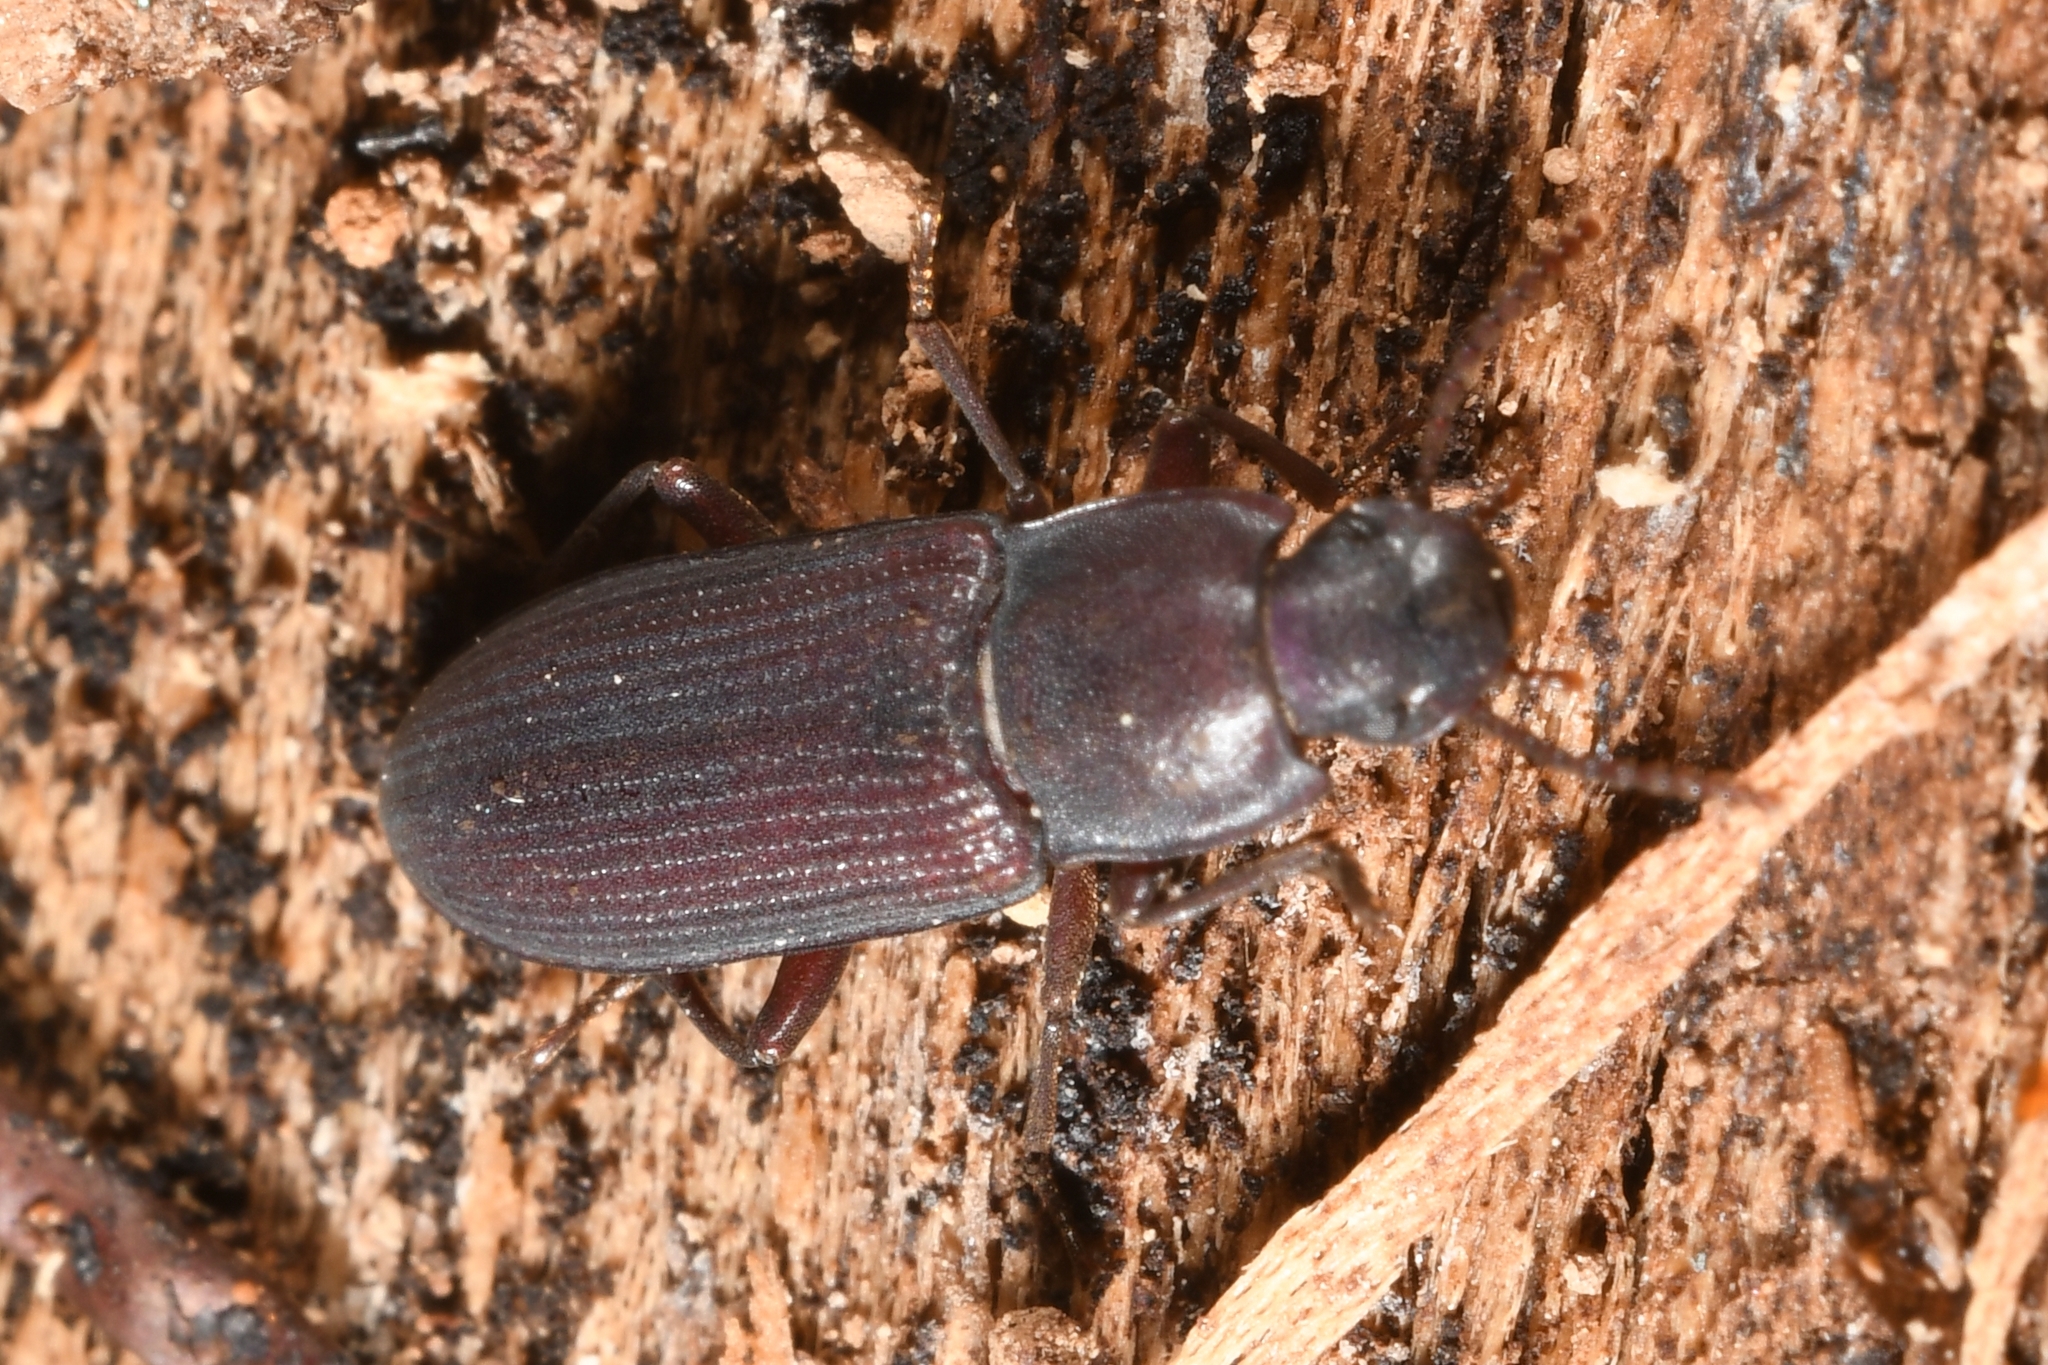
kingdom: Animalia
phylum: Arthropoda
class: Insecta
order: Coleoptera
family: Tenebrionidae
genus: Idiobates
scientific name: Idiobates castaneus
